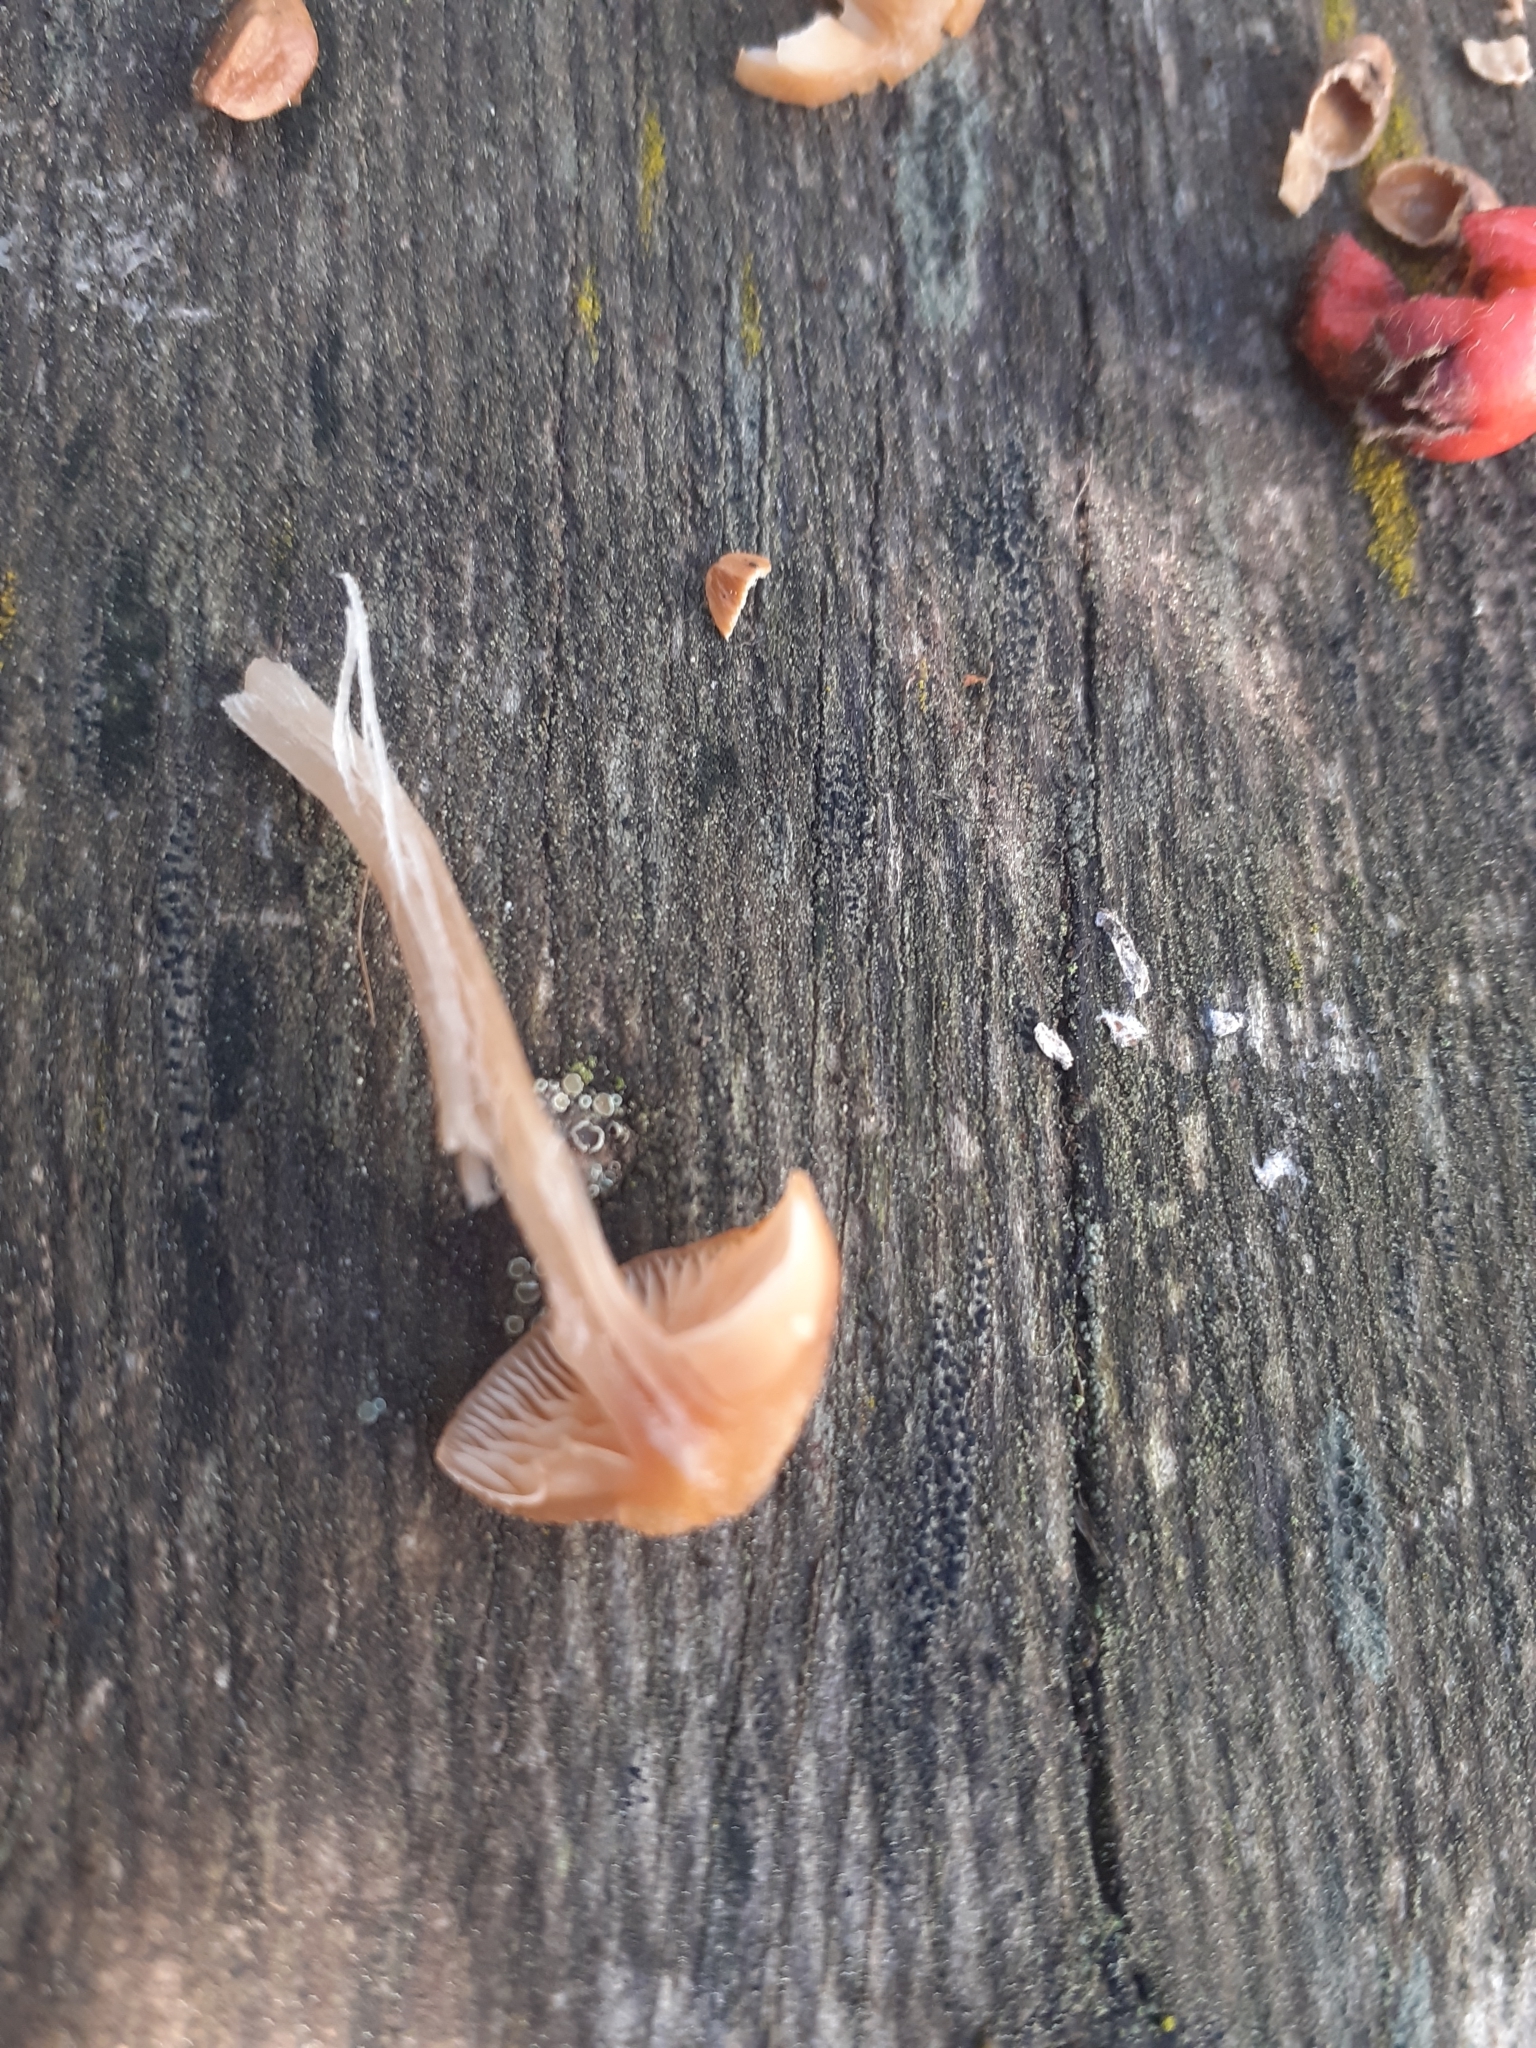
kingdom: Fungi
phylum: Basidiomycota
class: Agaricomycetes
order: Agaricales
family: Tubariaceae
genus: Tubaria
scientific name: Tubaria furfuracea
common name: Scurfy twiglet
